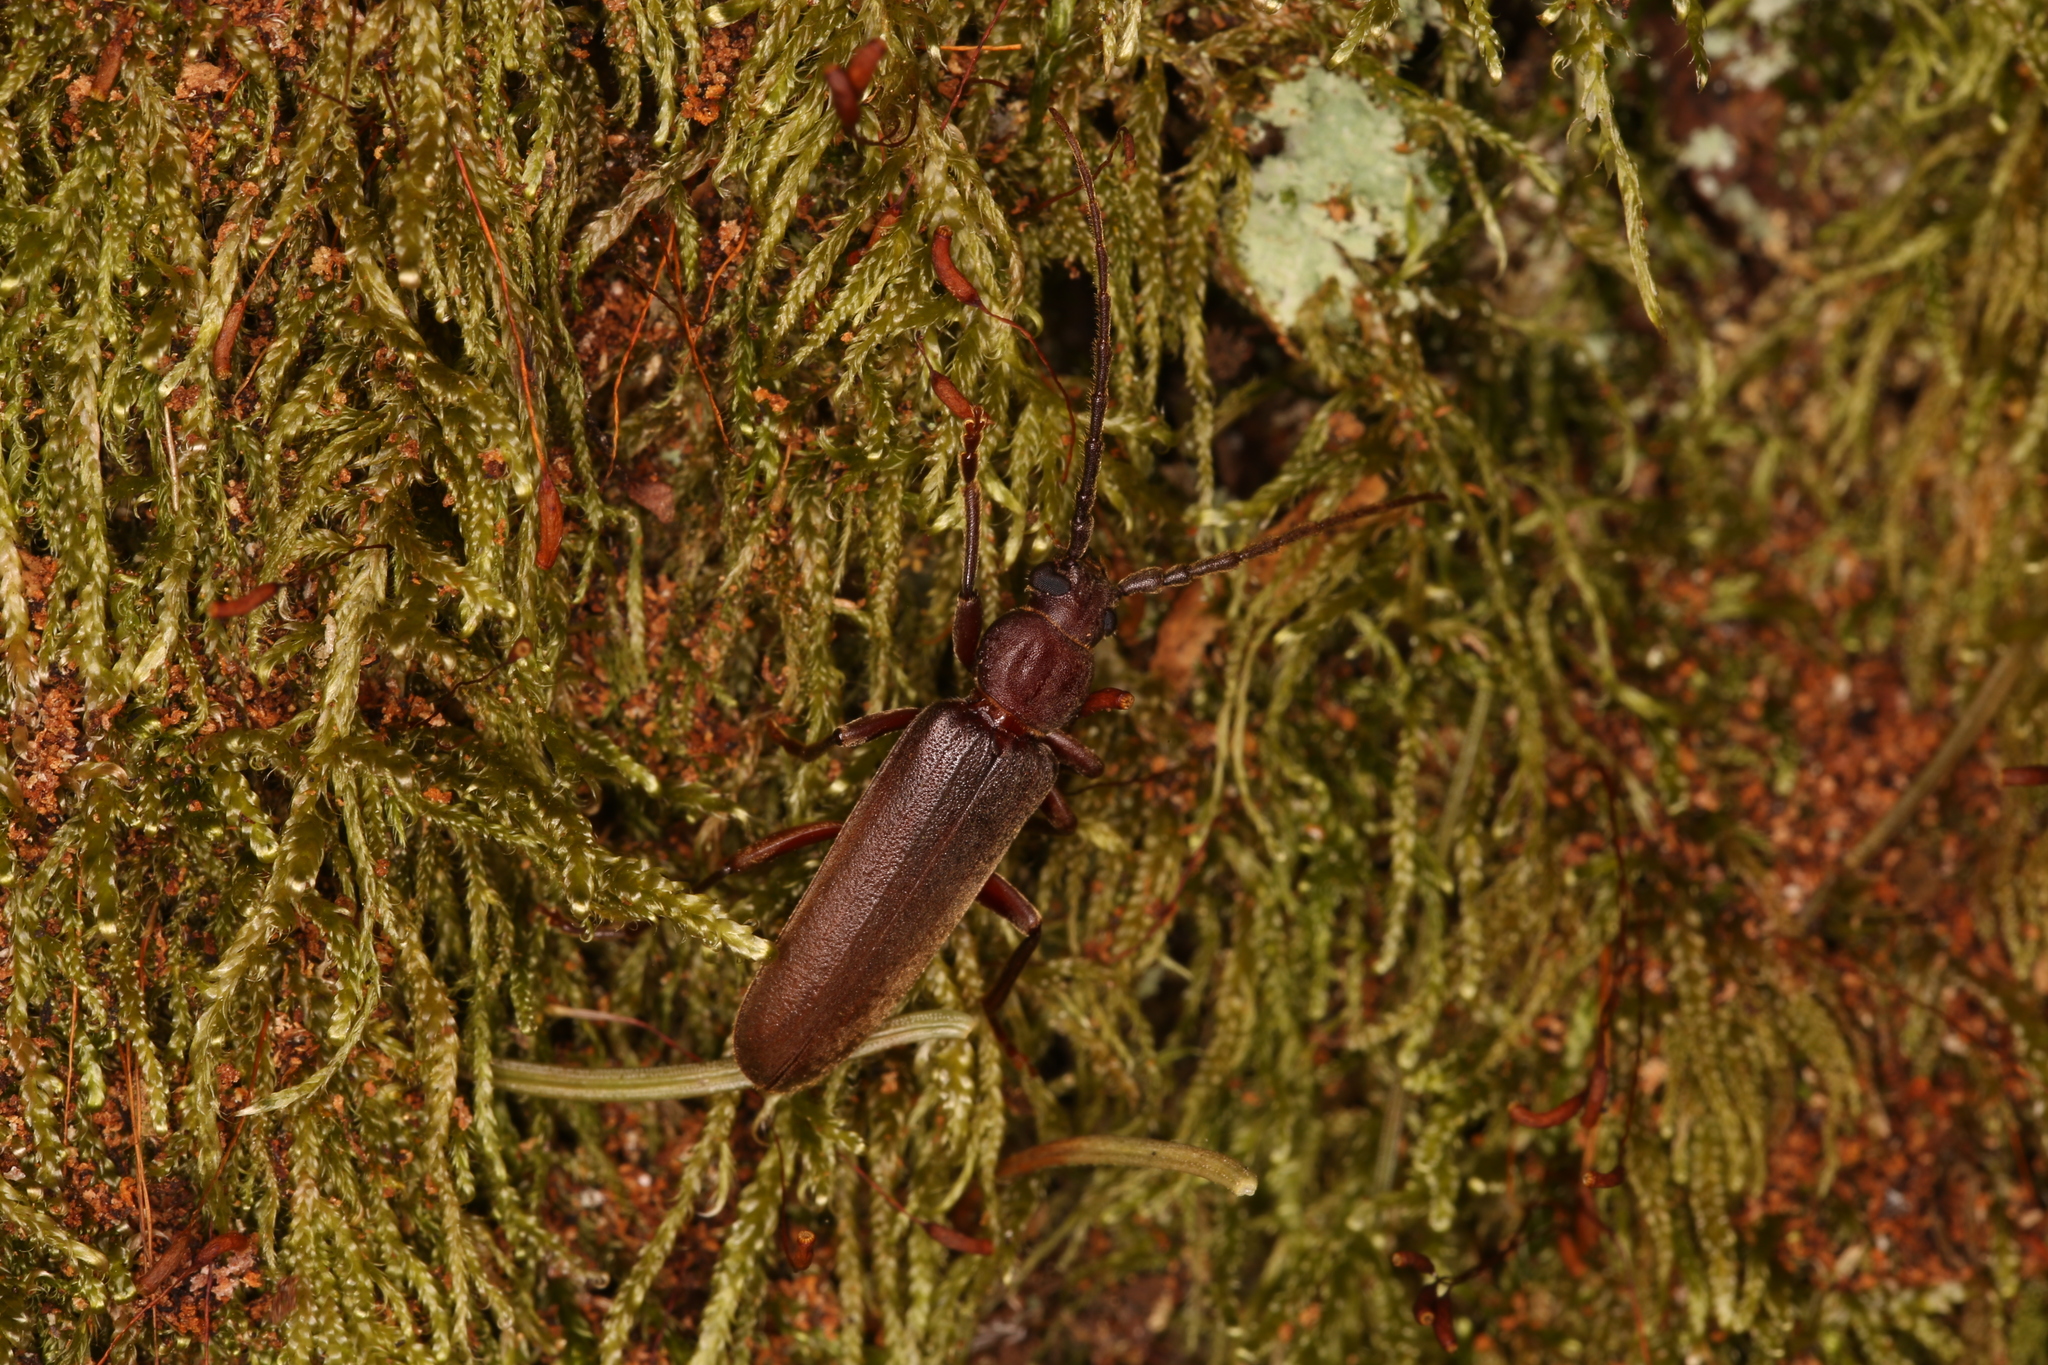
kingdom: Animalia
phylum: Arthropoda
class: Insecta
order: Coleoptera
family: Cerambycidae
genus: Arhopalus
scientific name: Arhopalus rusticus
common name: Rust pine borer
